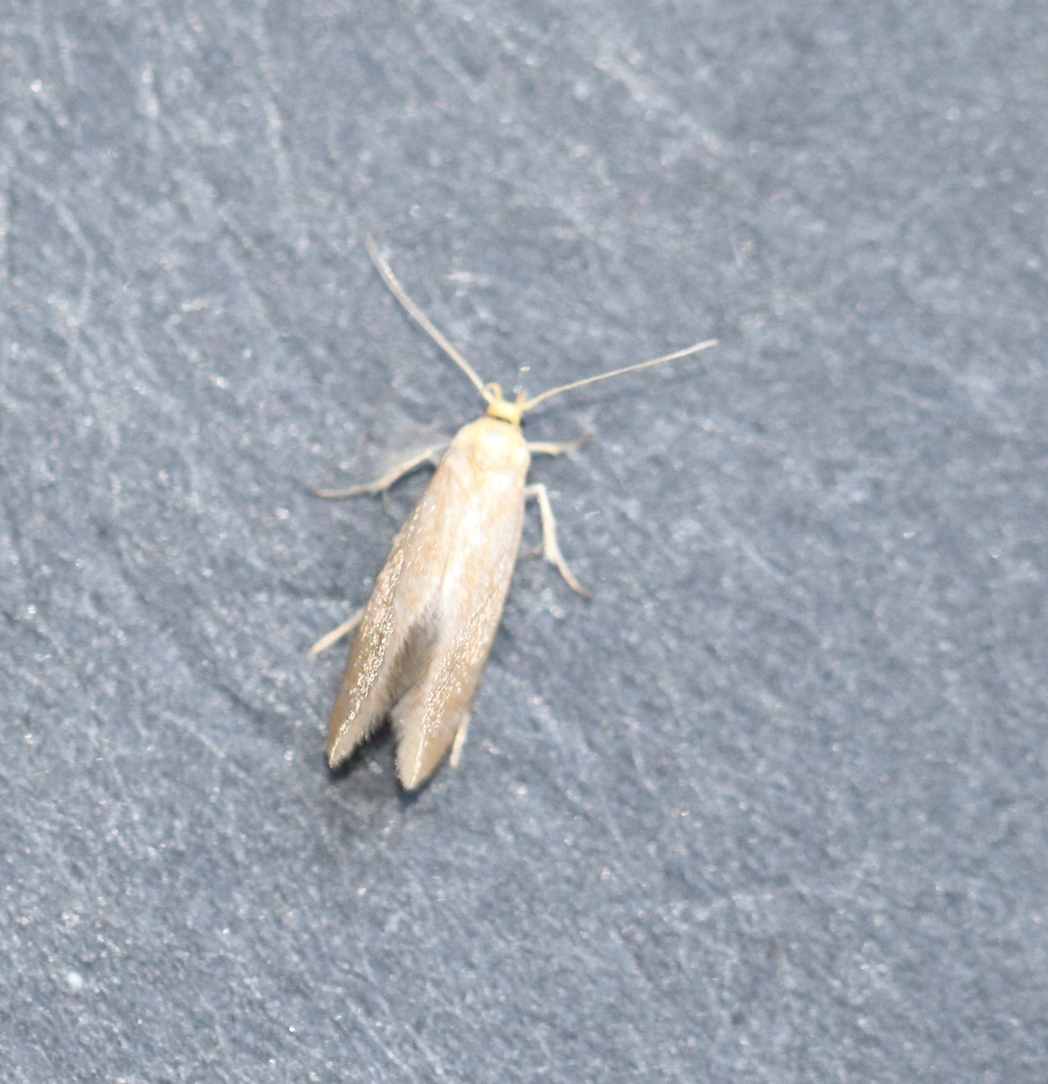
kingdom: Animalia
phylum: Arthropoda
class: Insecta
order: Lepidoptera
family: Oecophoridae
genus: Borkhausenia
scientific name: Borkhausenia Crassa tinctella
